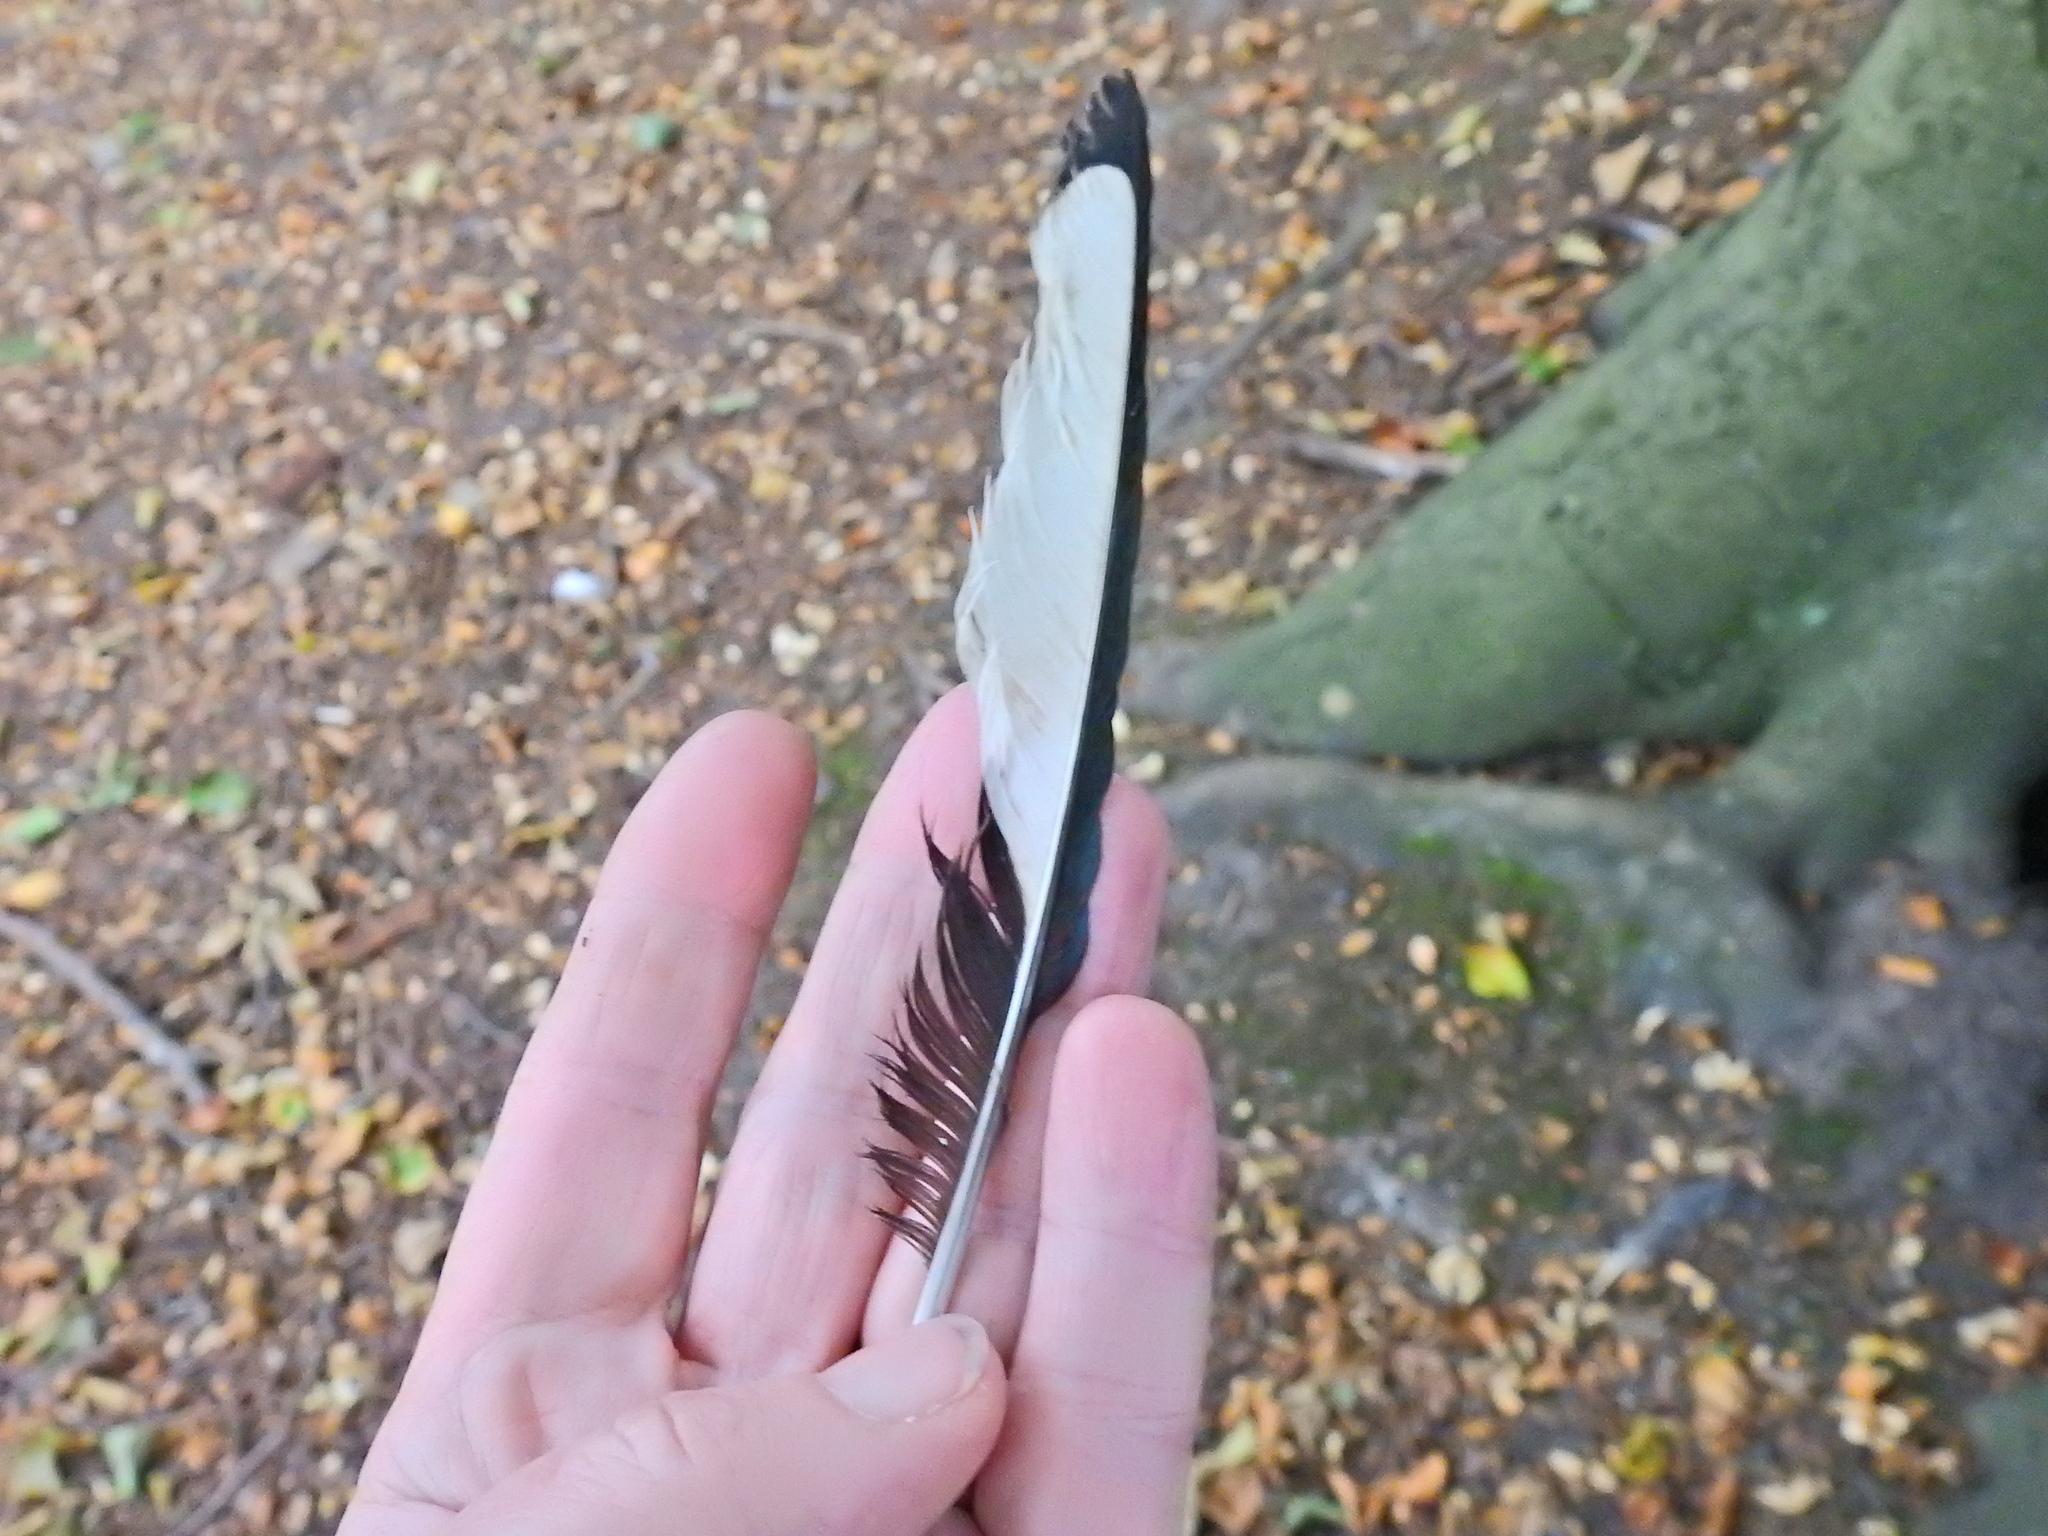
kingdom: Animalia
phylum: Chordata
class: Aves
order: Passeriformes
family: Corvidae
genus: Pica
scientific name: Pica pica
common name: Eurasian magpie
